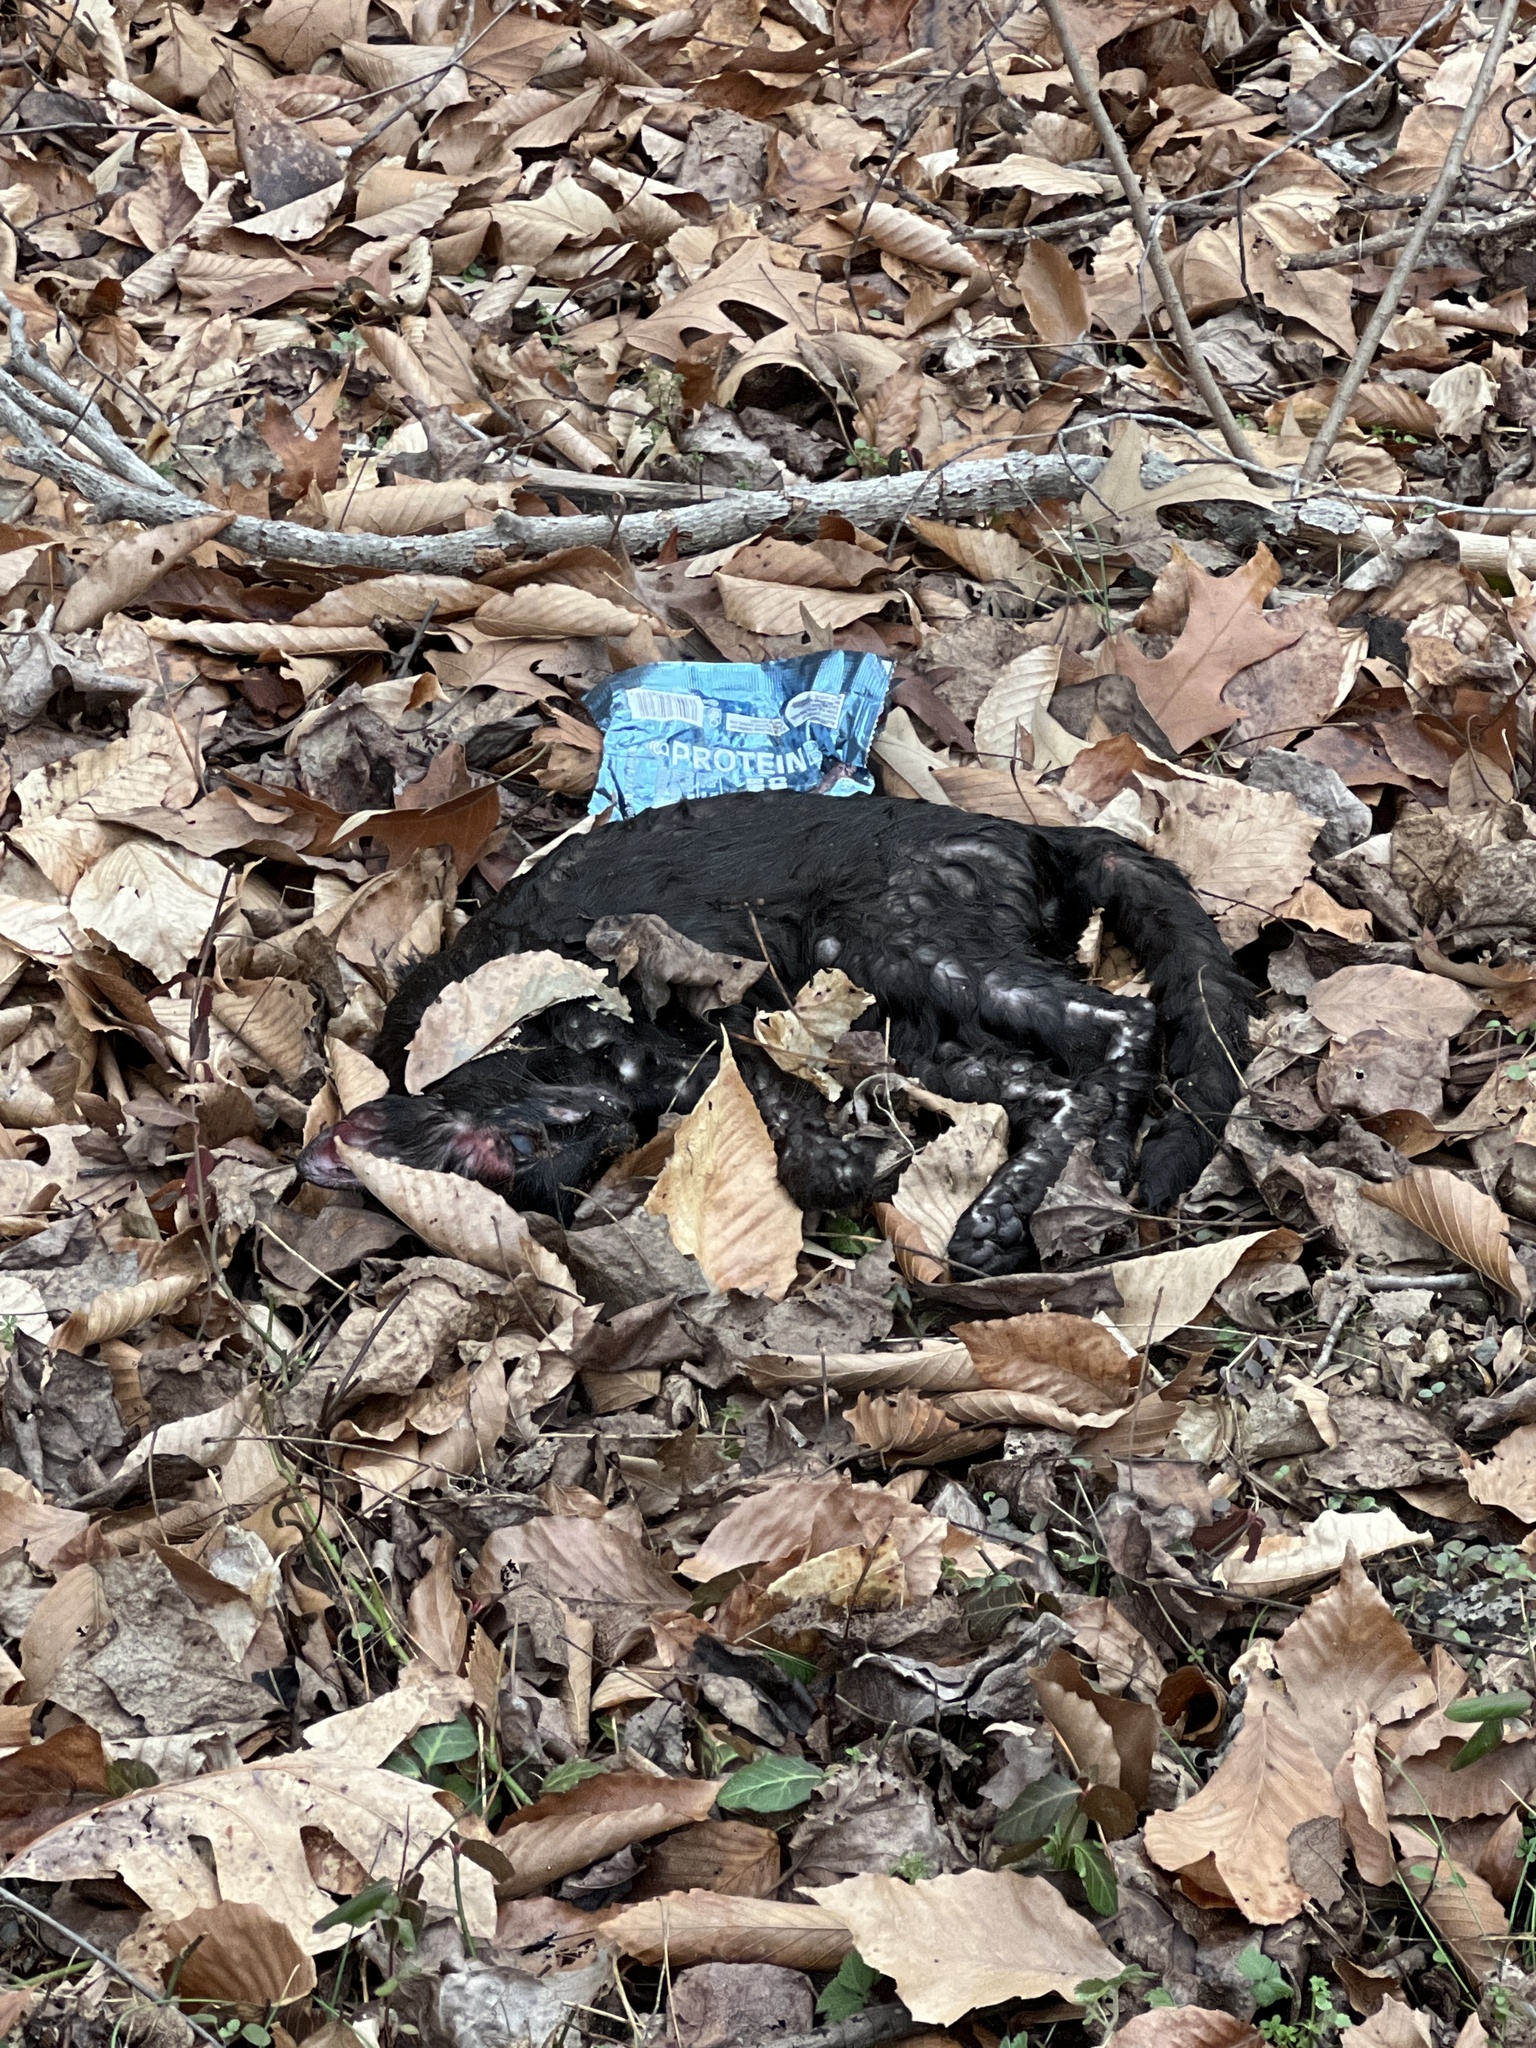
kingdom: Animalia
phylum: Chordata
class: Mammalia
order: Carnivora
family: Felidae
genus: Felis
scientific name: Felis catus
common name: Domestic cat
